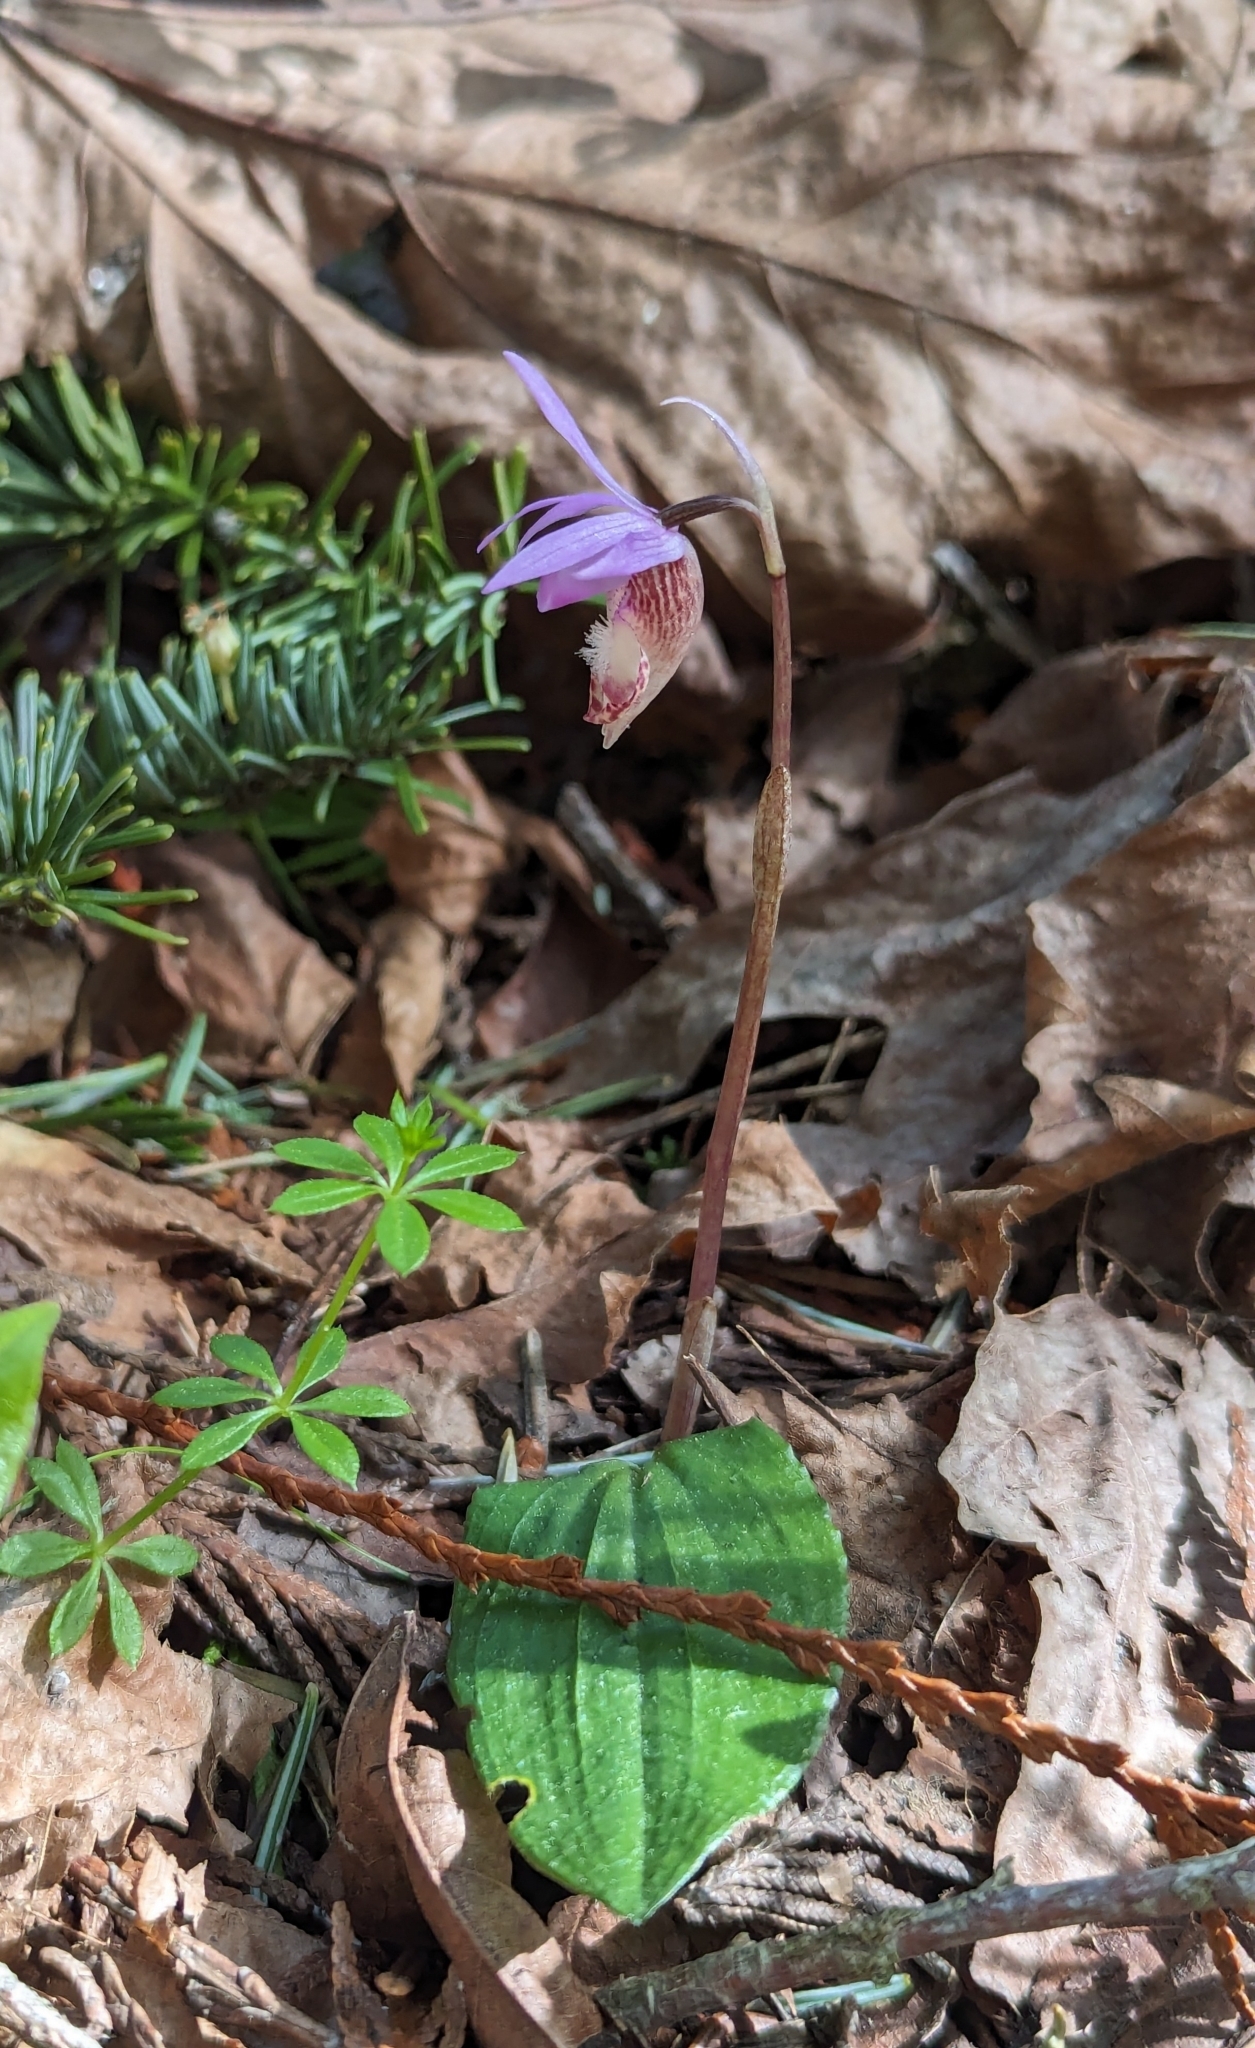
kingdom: Plantae
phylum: Tracheophyta
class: Liliopsida
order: Asparagales
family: Orchidaceae
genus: Calypso
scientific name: Calypso bulbosa
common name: Calypso
